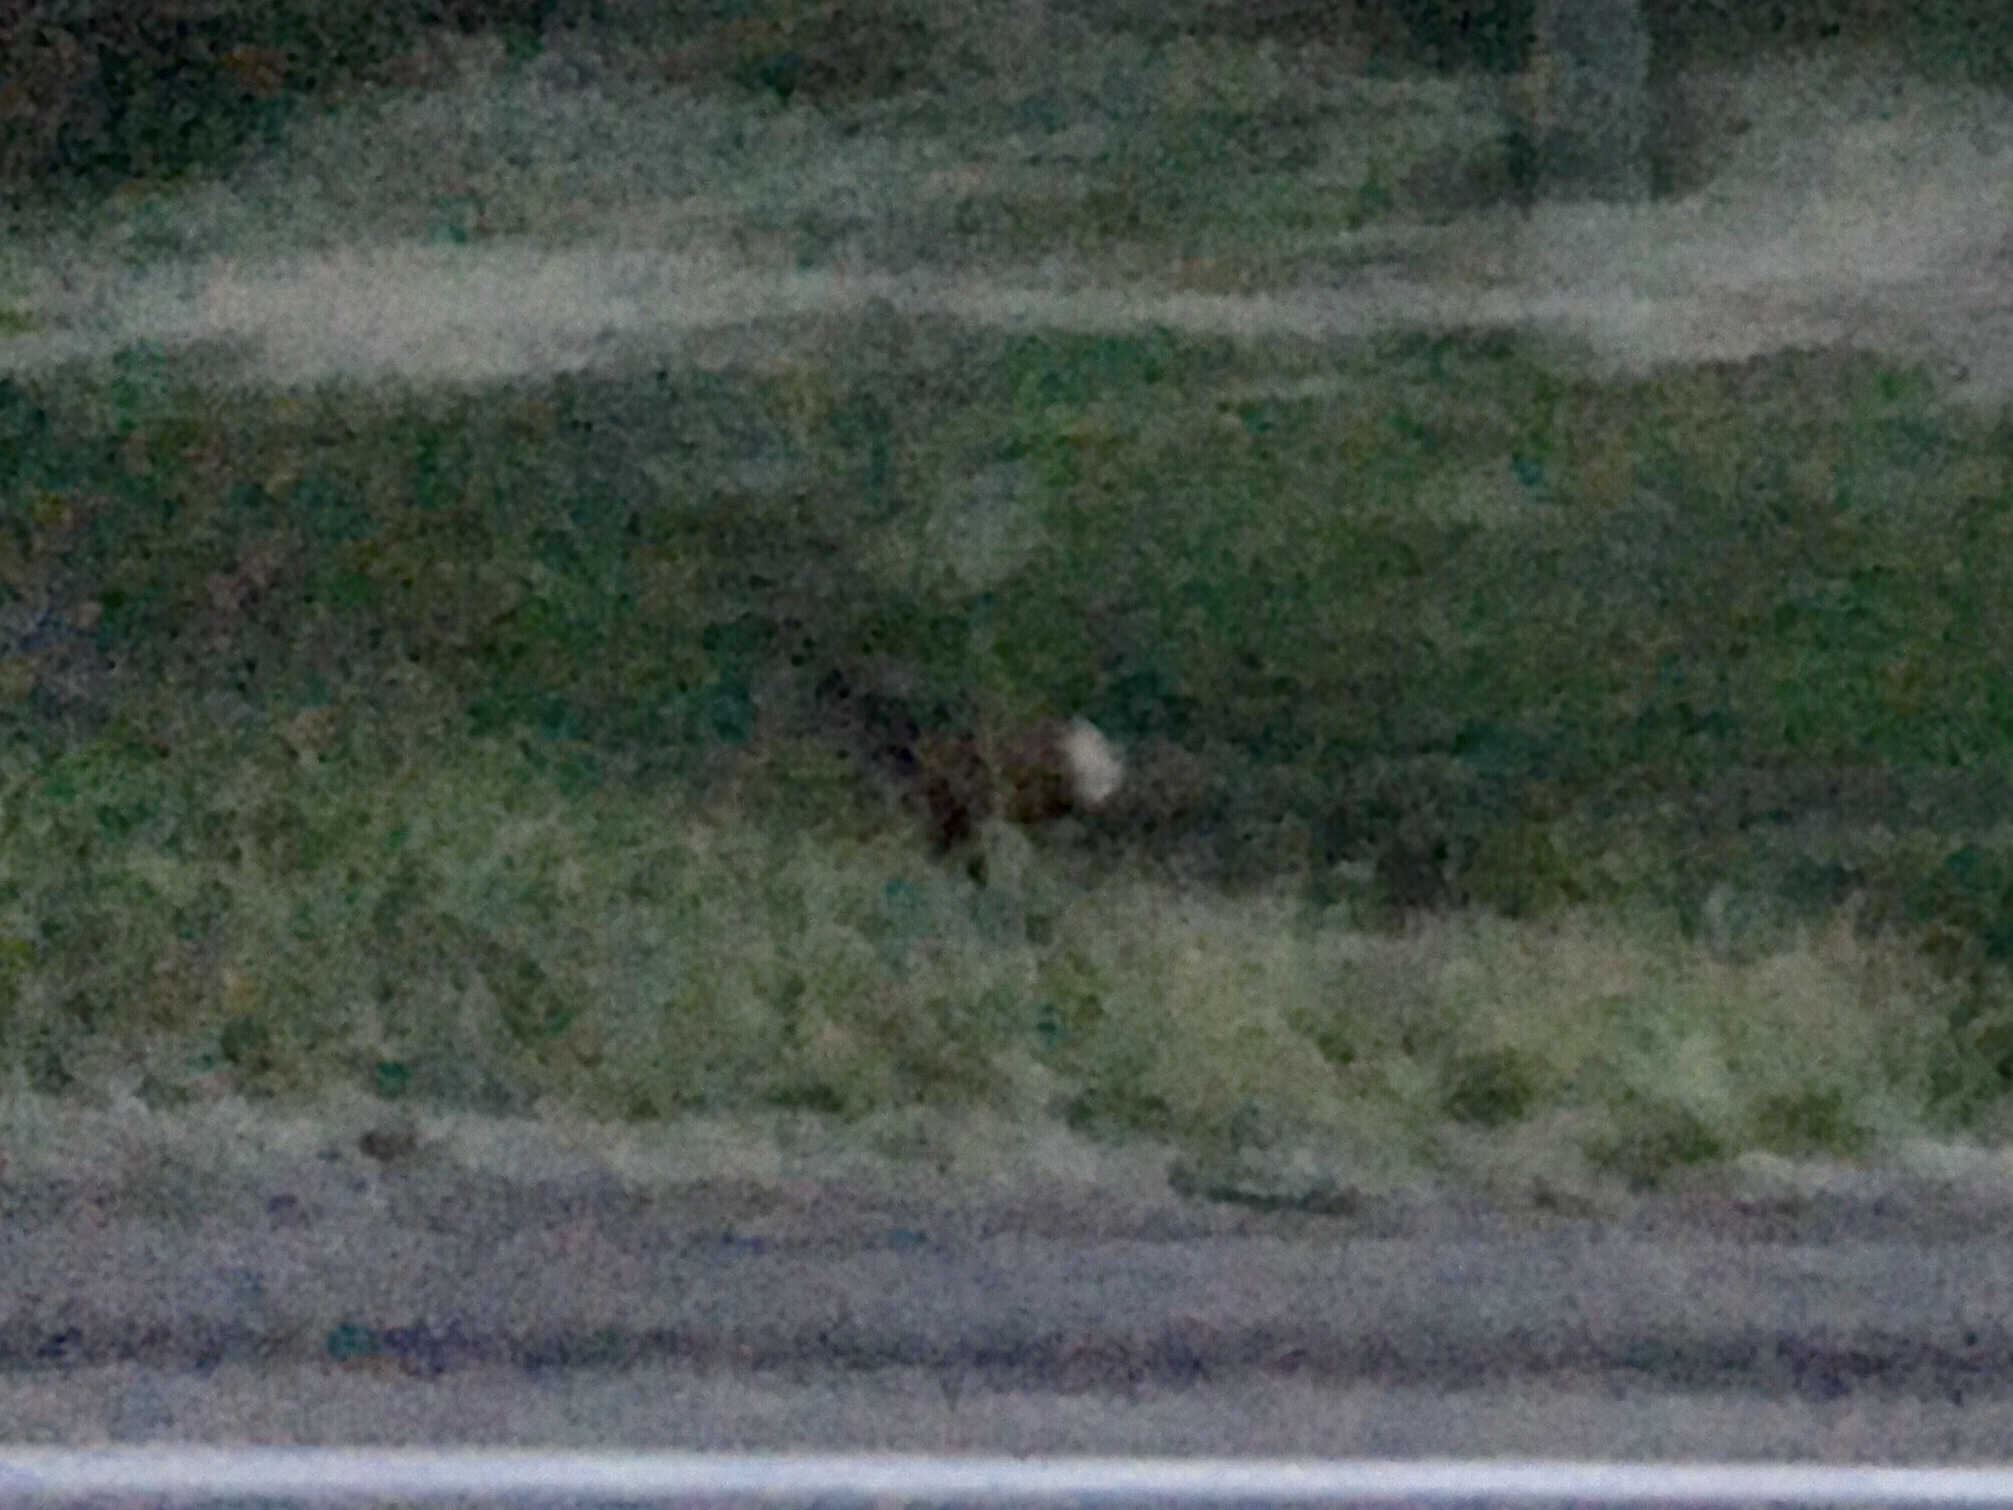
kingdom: Animalia
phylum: Chordata
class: Mammalia
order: Artiodactyla
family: Cervidae
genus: Cervus
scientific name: Cervus elaphus
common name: Red deer
